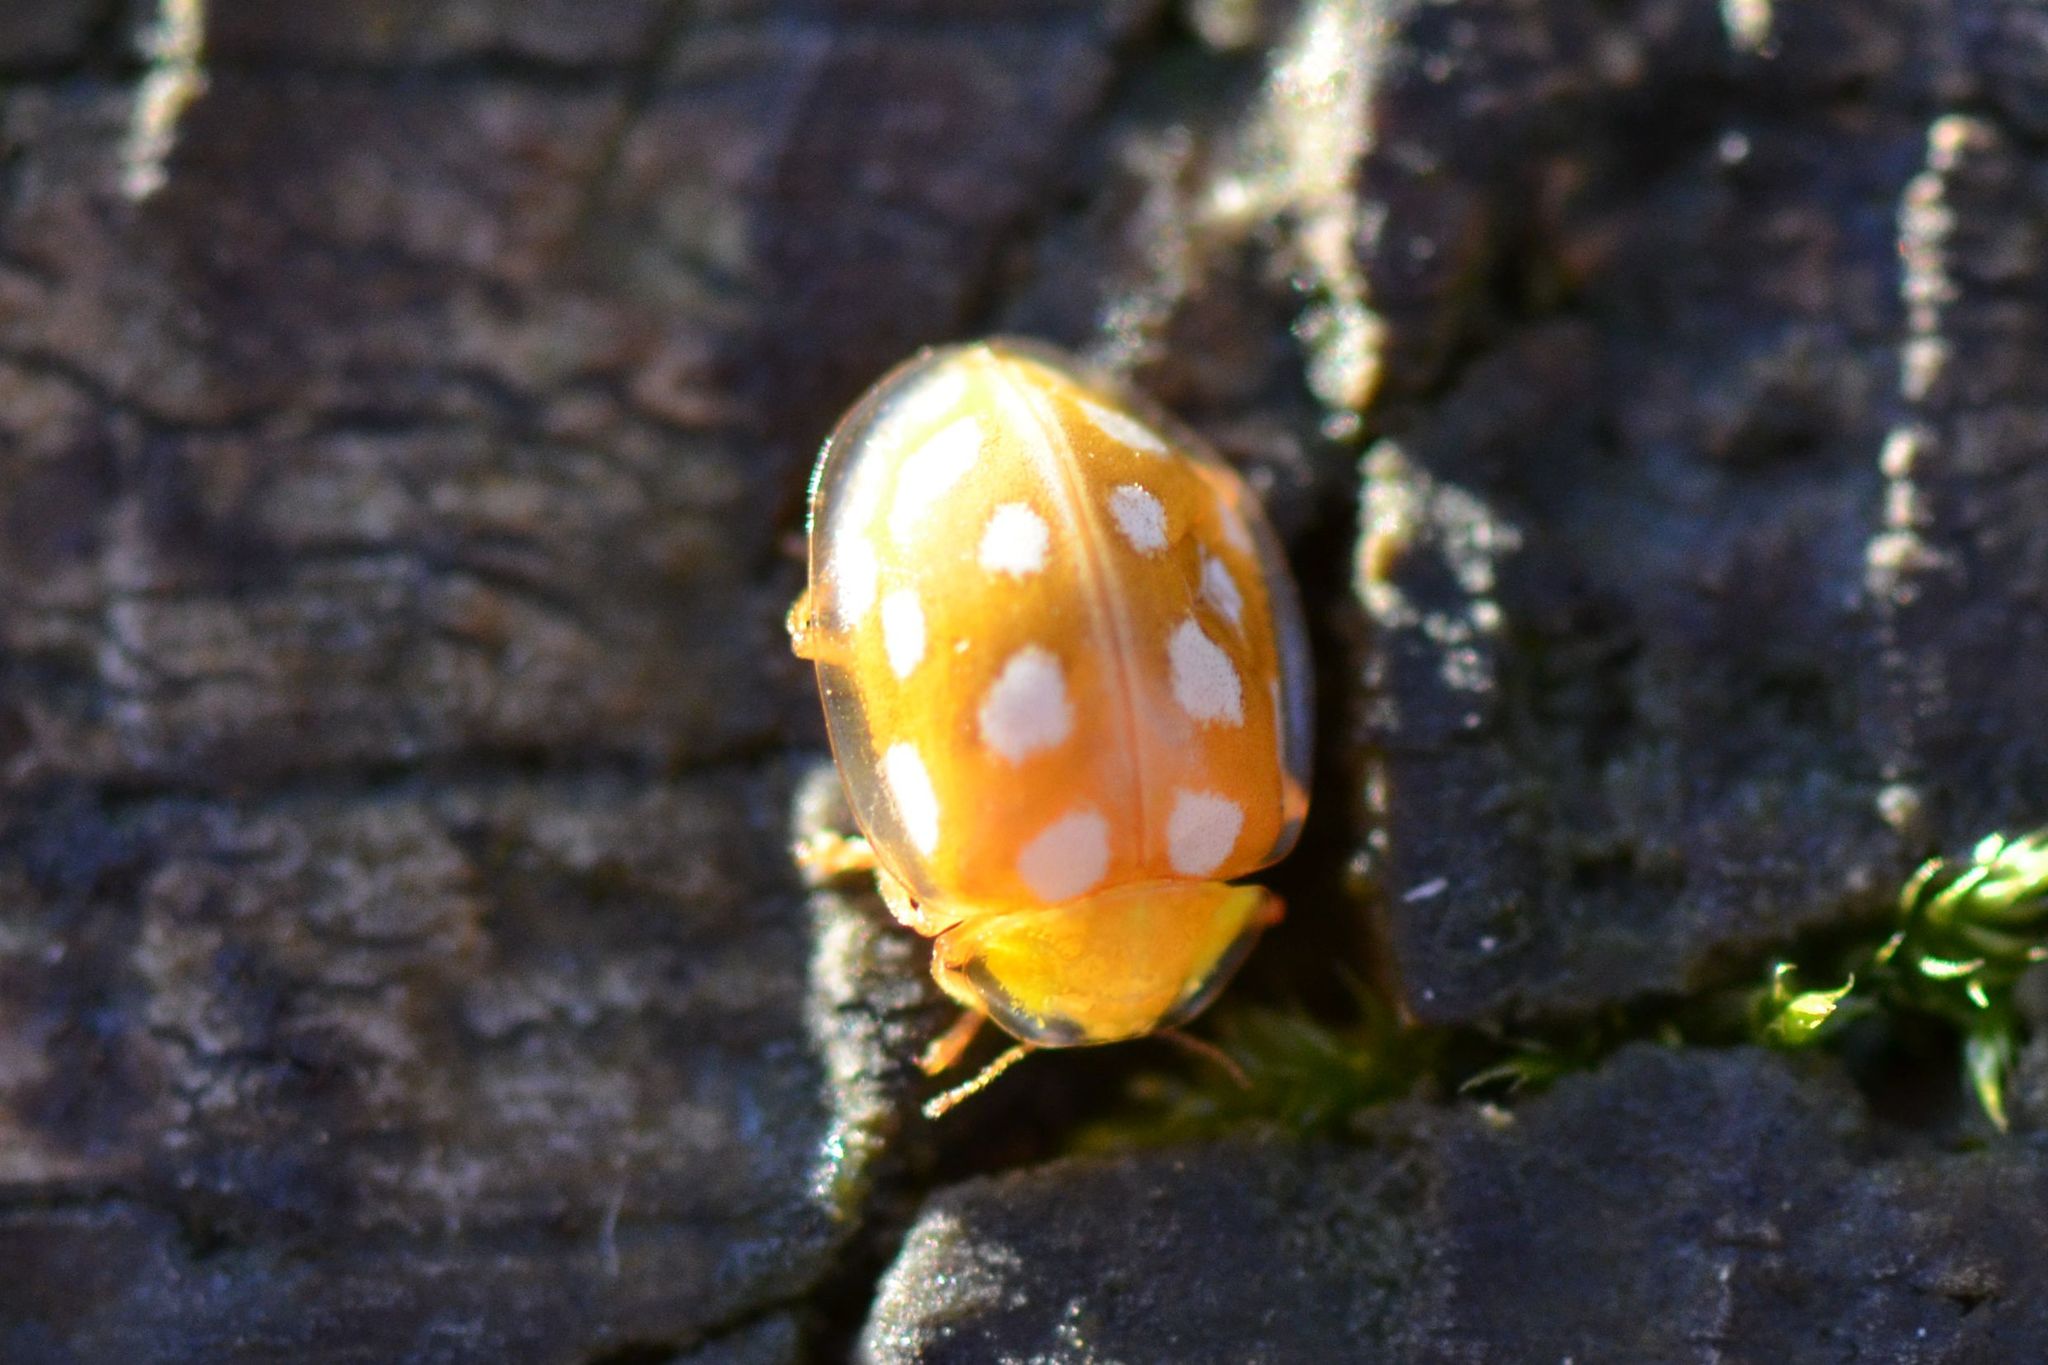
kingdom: Animalia
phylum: Arthropoda
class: Insecta
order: Coleoptera
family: Coccinellidae
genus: Halyzia
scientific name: Halyzia sedecimguttata
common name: Orange ladybird
